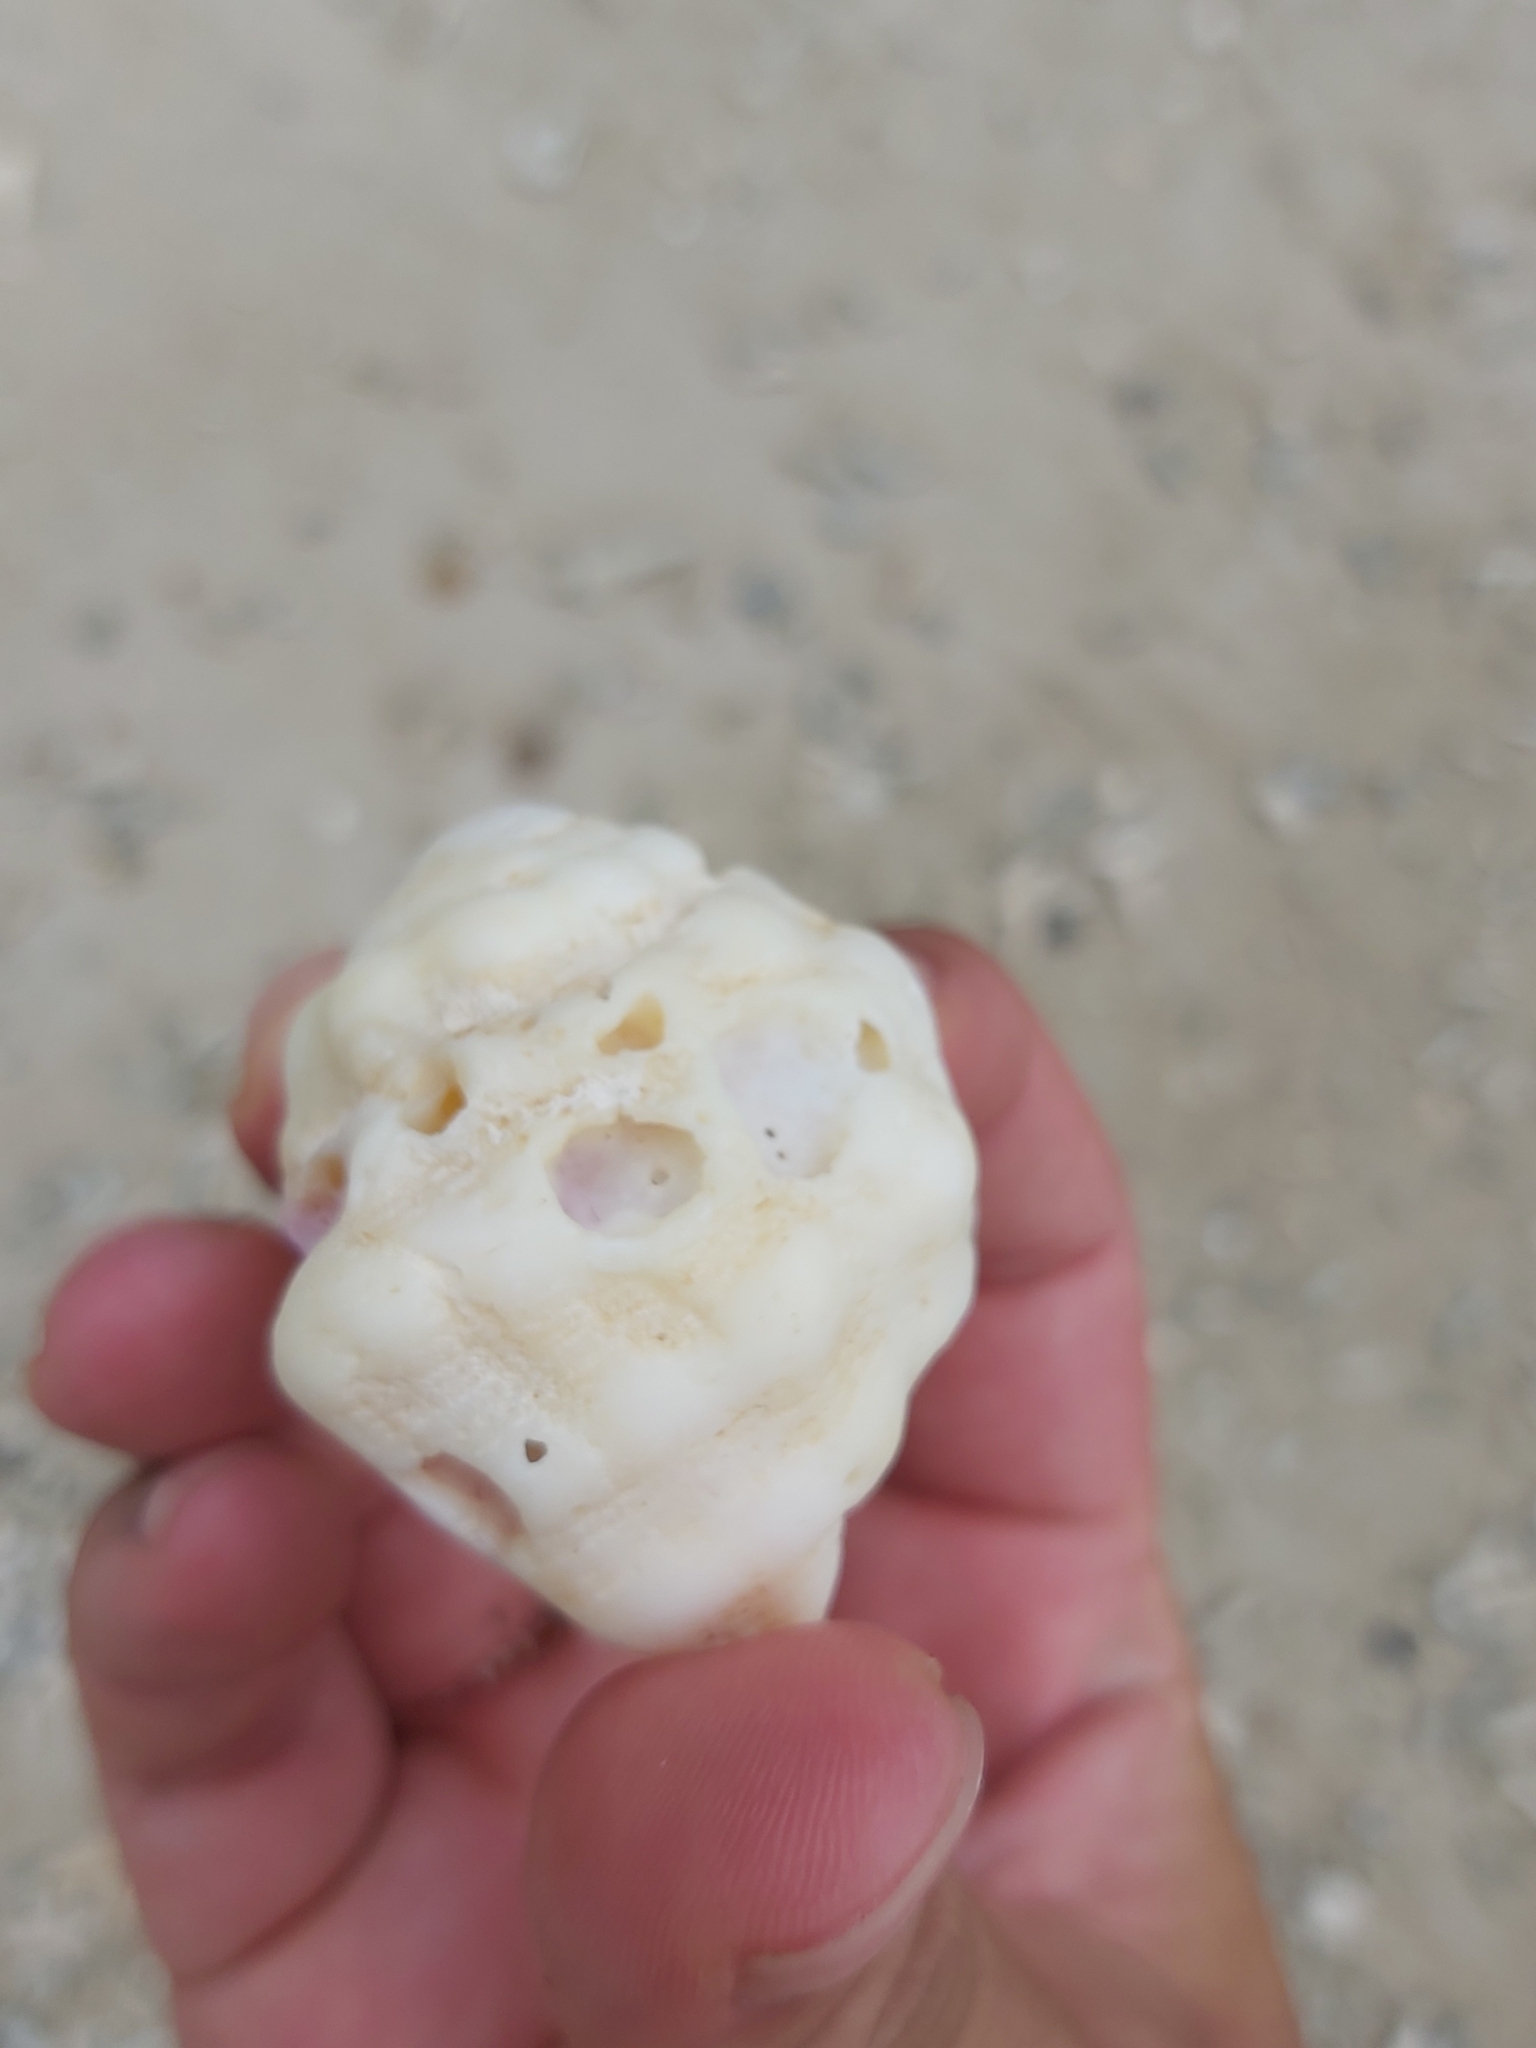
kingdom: Animalia
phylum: Mollusca
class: Gastropoda
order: Neogastropoda
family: Muricidae
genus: Drupa
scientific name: Drupa
